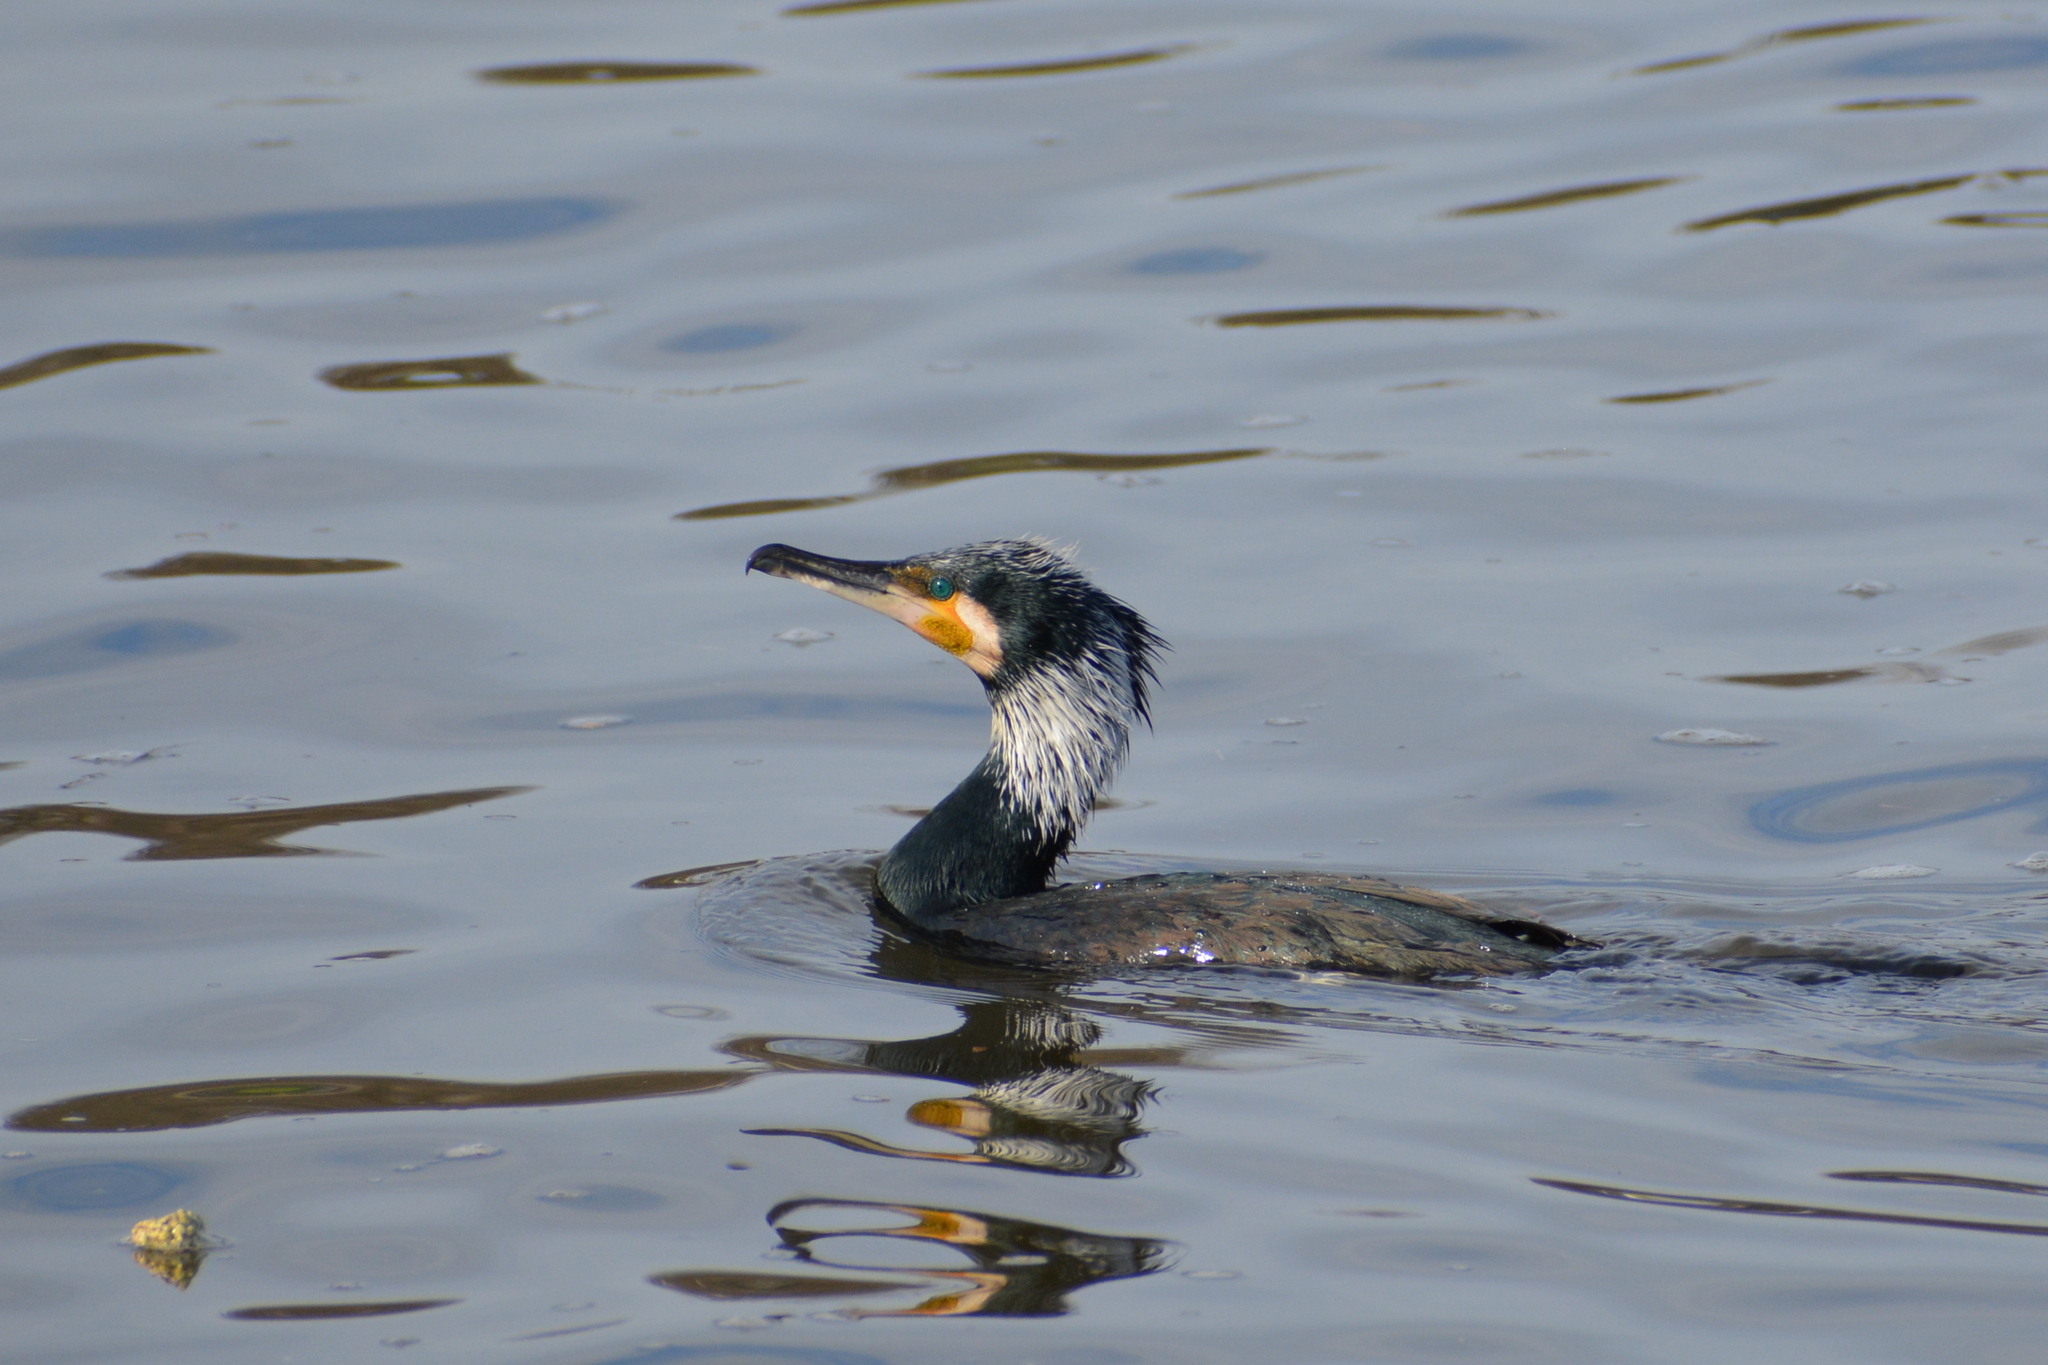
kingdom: Animalia
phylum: Chordata
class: Aves
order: Suliformes
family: Phalacrocoracidae
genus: Phalacrocorax
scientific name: Phalacrocorax carbo
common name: Great cormorant
